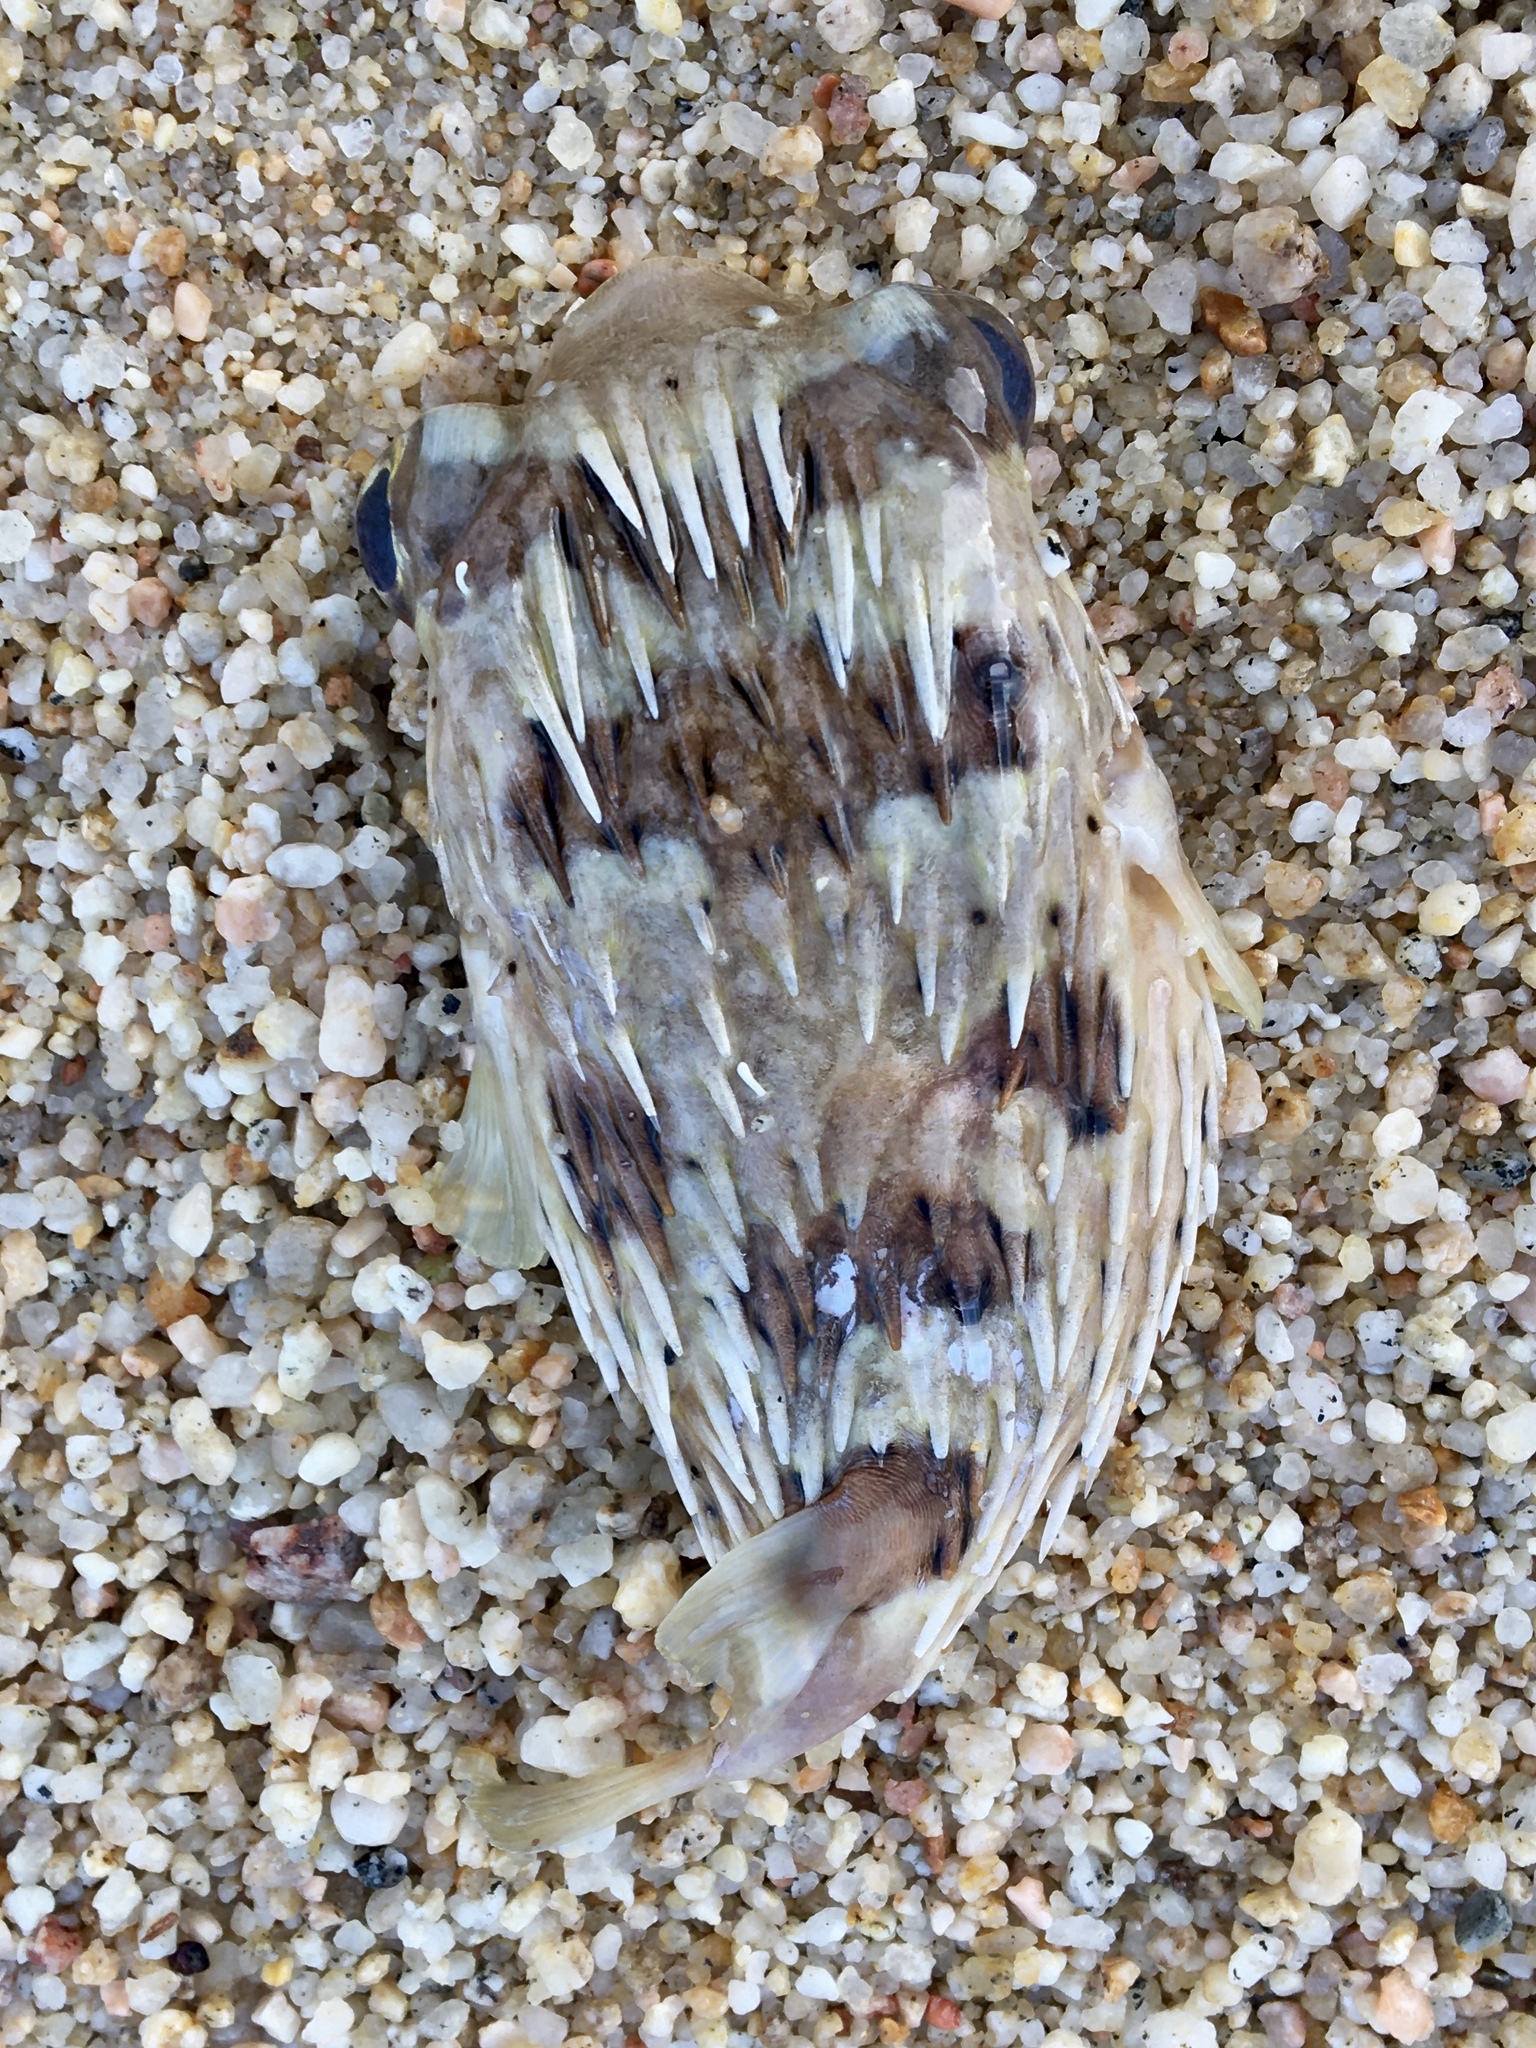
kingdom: Animalia
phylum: Chordata
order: Tetraodontiformes
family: Diodontidae
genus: Diodon
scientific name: Diodon holocanthus
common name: Balloonfish
